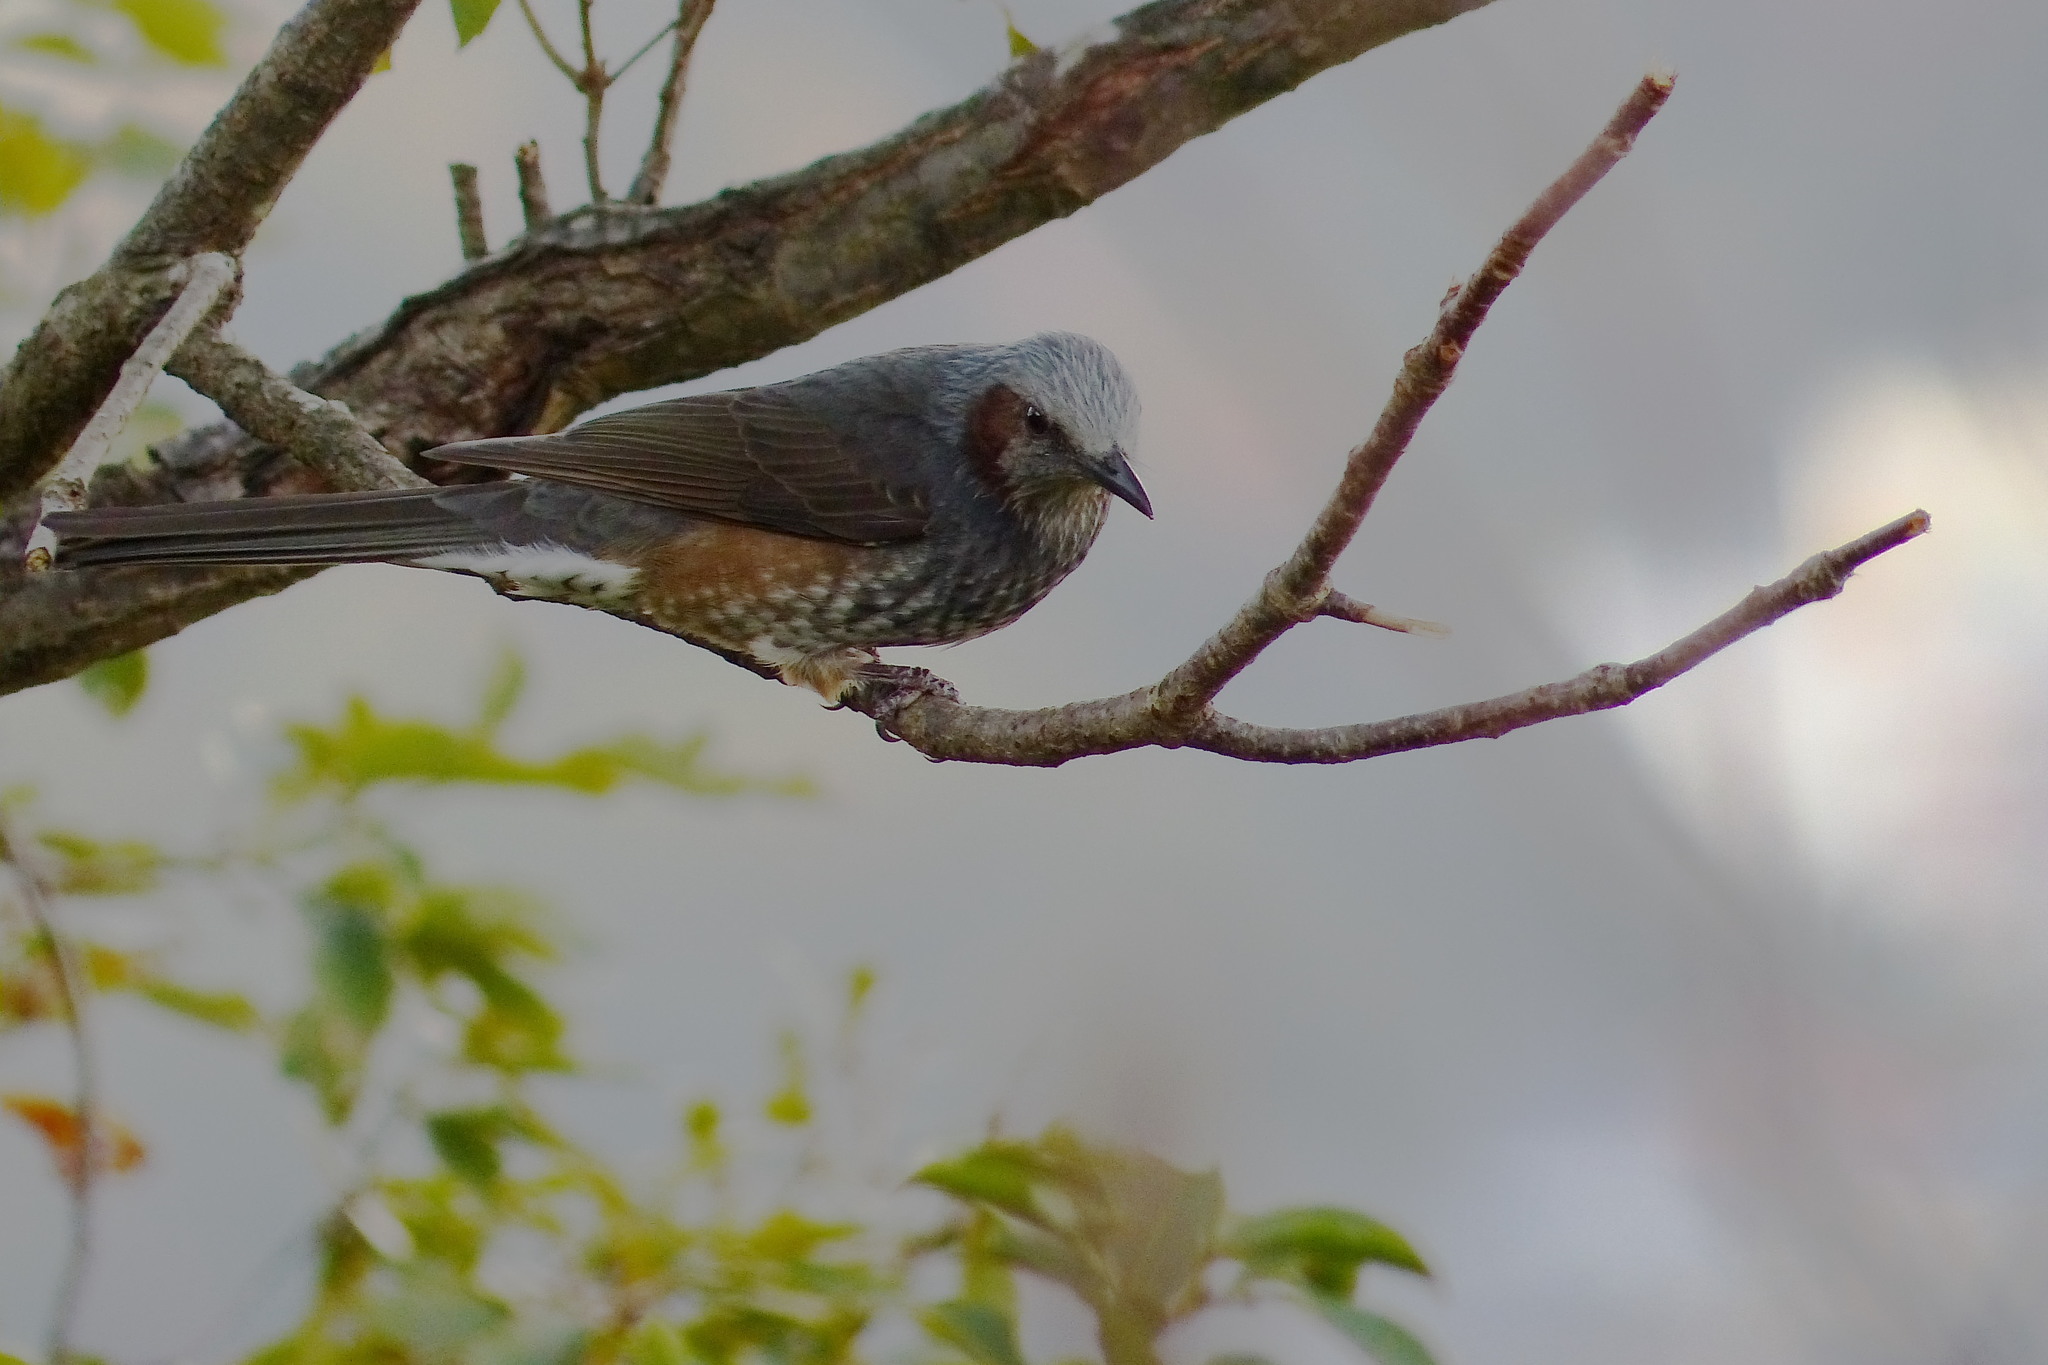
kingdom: Animalia
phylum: Chordata
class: Aves
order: Passeriformes
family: Pycnonotidae
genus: Hypsipetes
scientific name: Hypsipetes amaurotis
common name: Brown-eared bulbul
